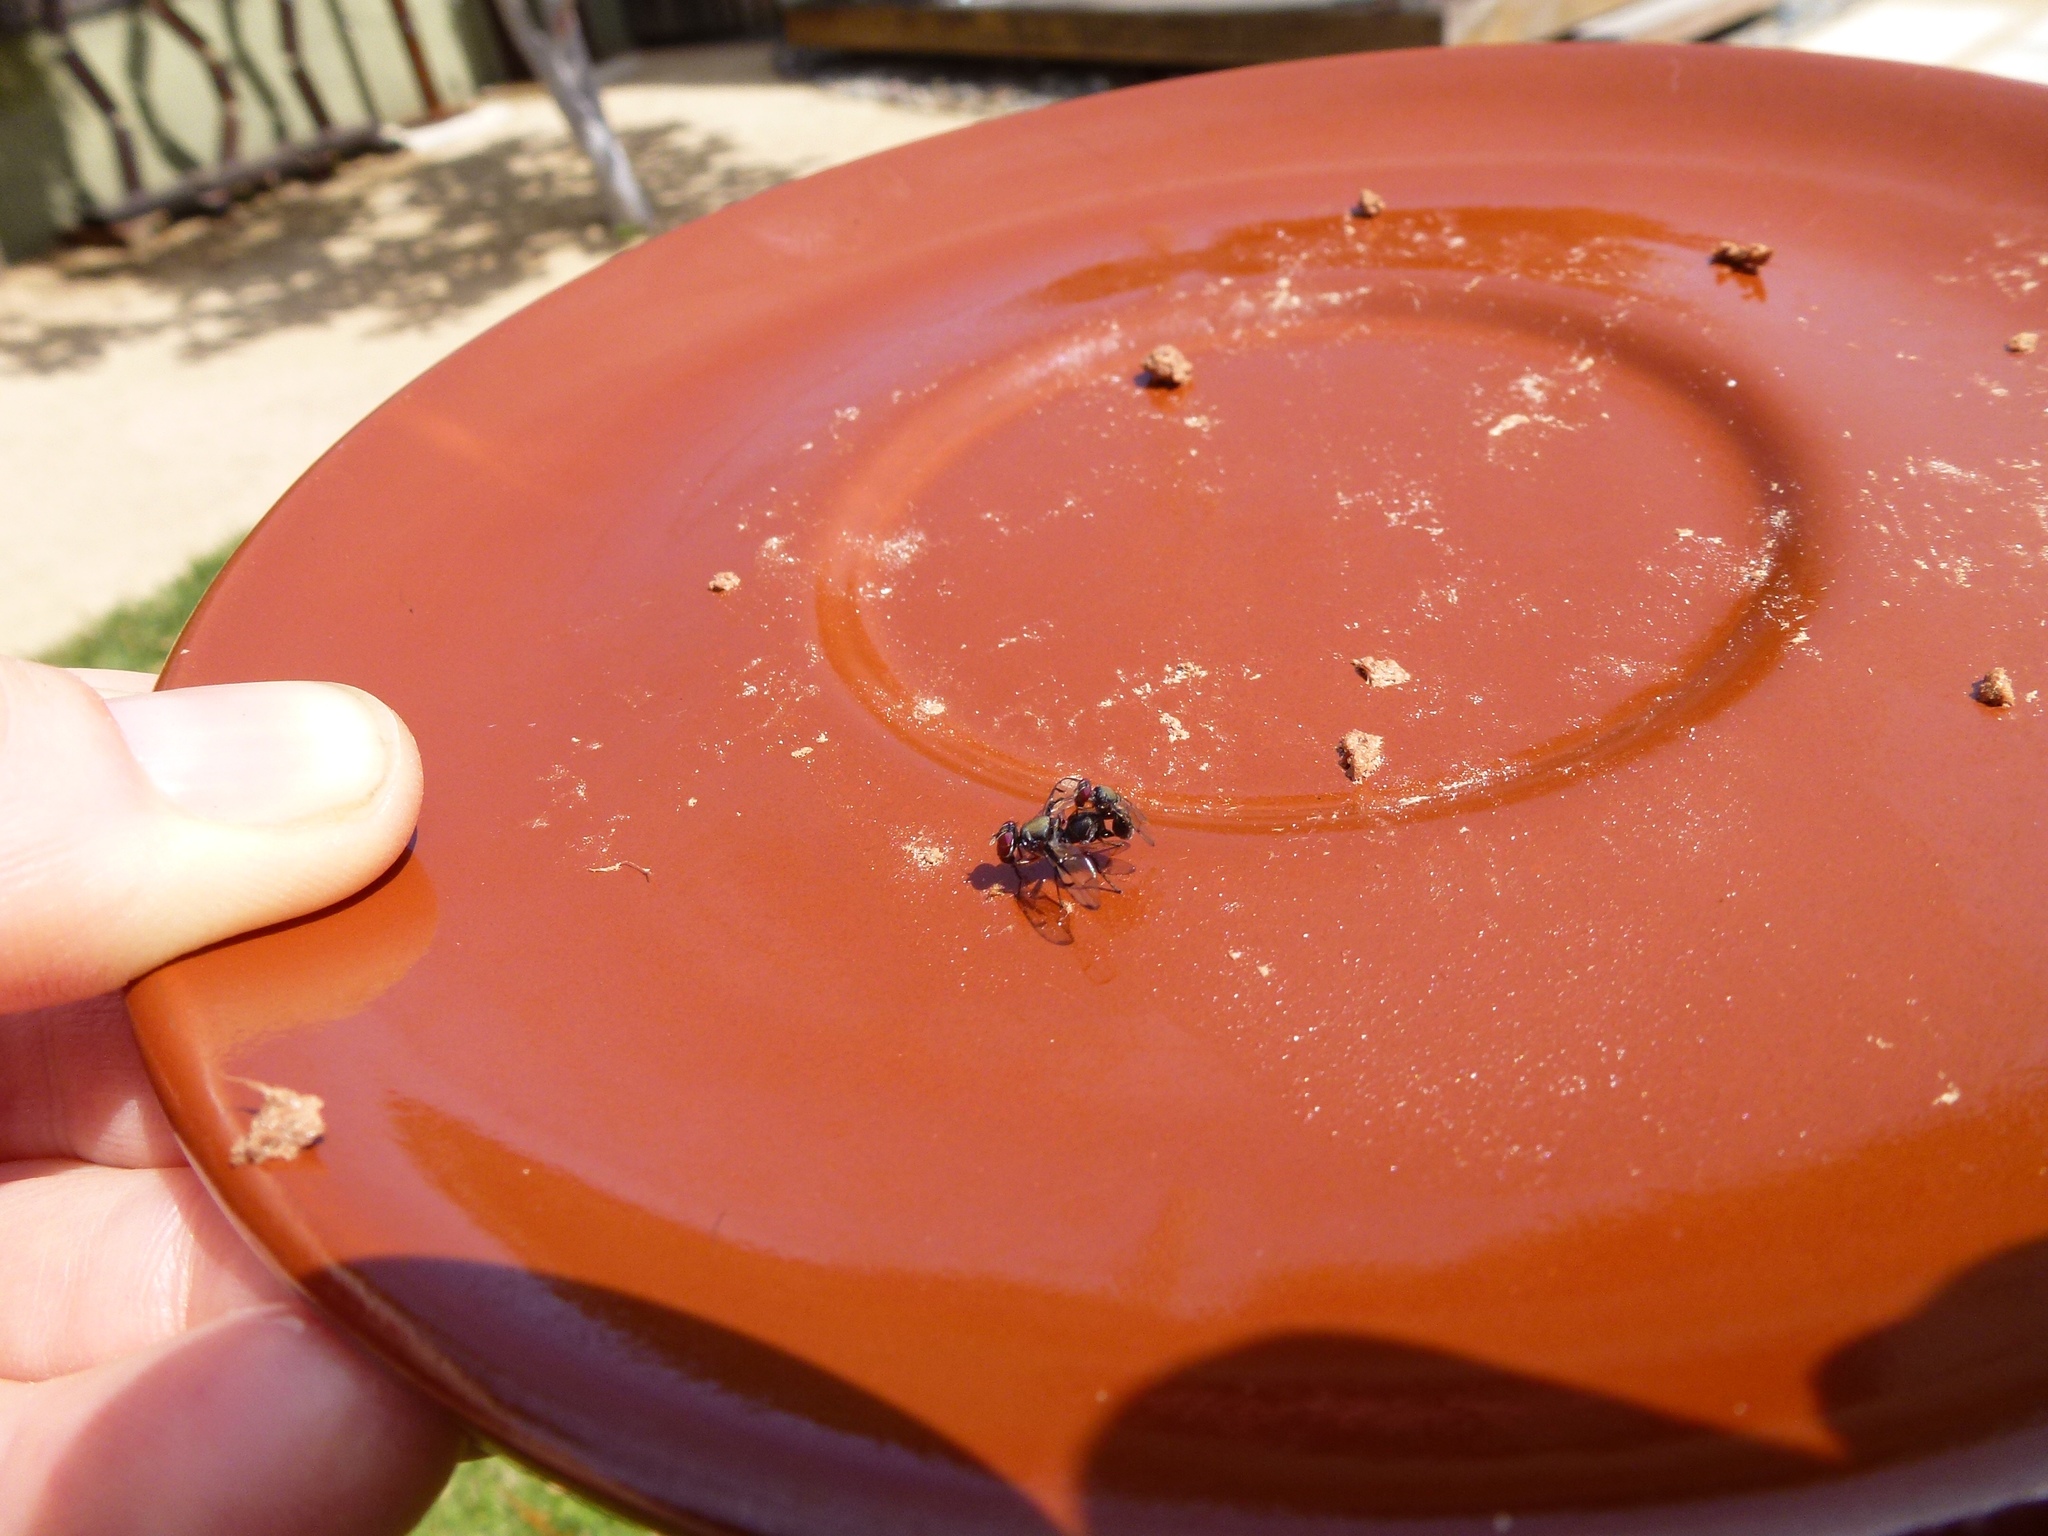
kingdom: Animalia
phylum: Arthropoda
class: Insecta
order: Diptera
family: Platystomatidae
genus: Pogonortalis
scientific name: Pogonortalis doclea
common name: Boatman fly
